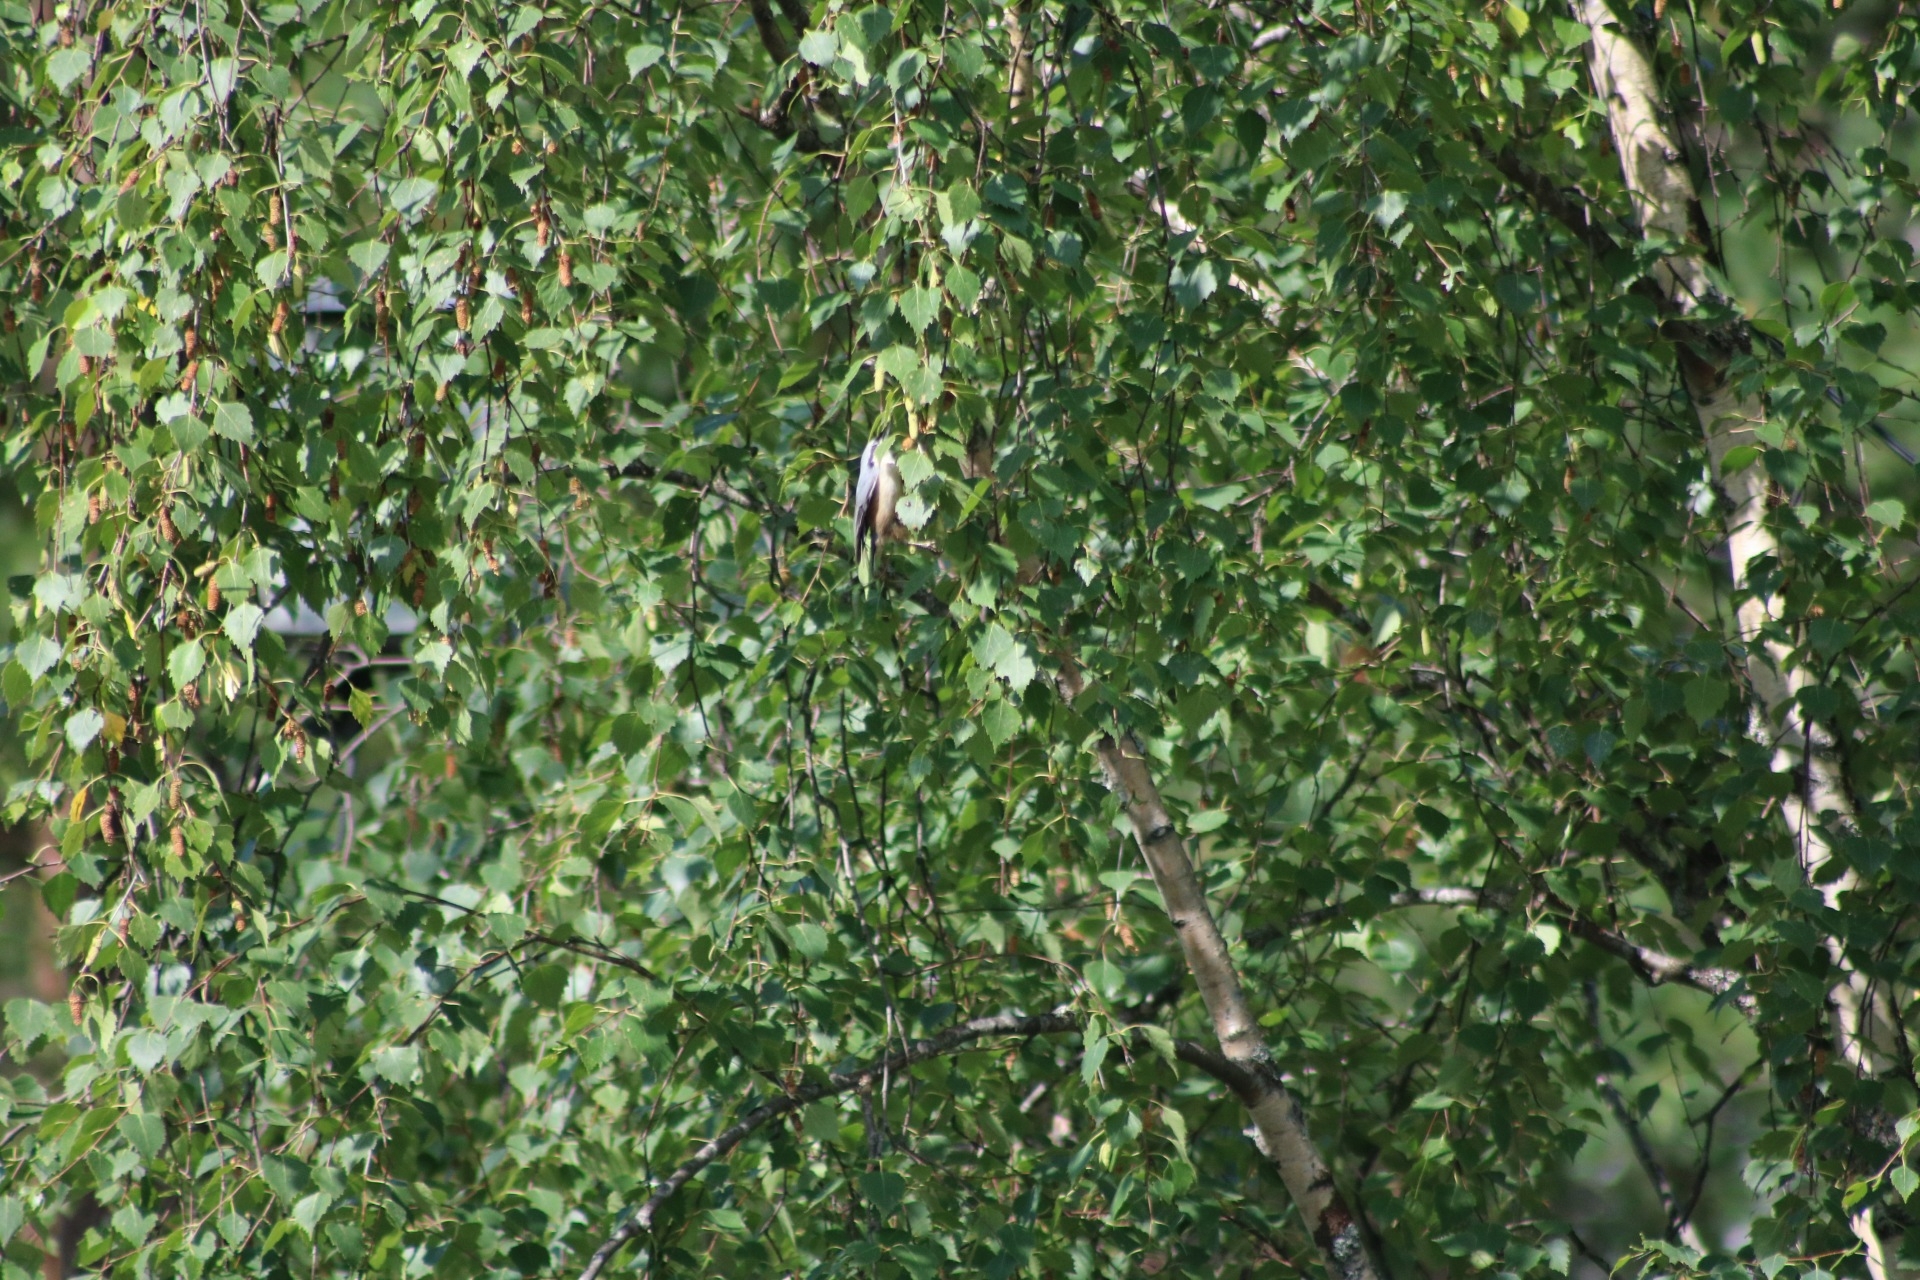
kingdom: Animalia
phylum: Chordata
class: Aves
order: Passeriformes
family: Sittidae
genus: Sitta
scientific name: Sitta europaea
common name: Eurasian nuthatch
